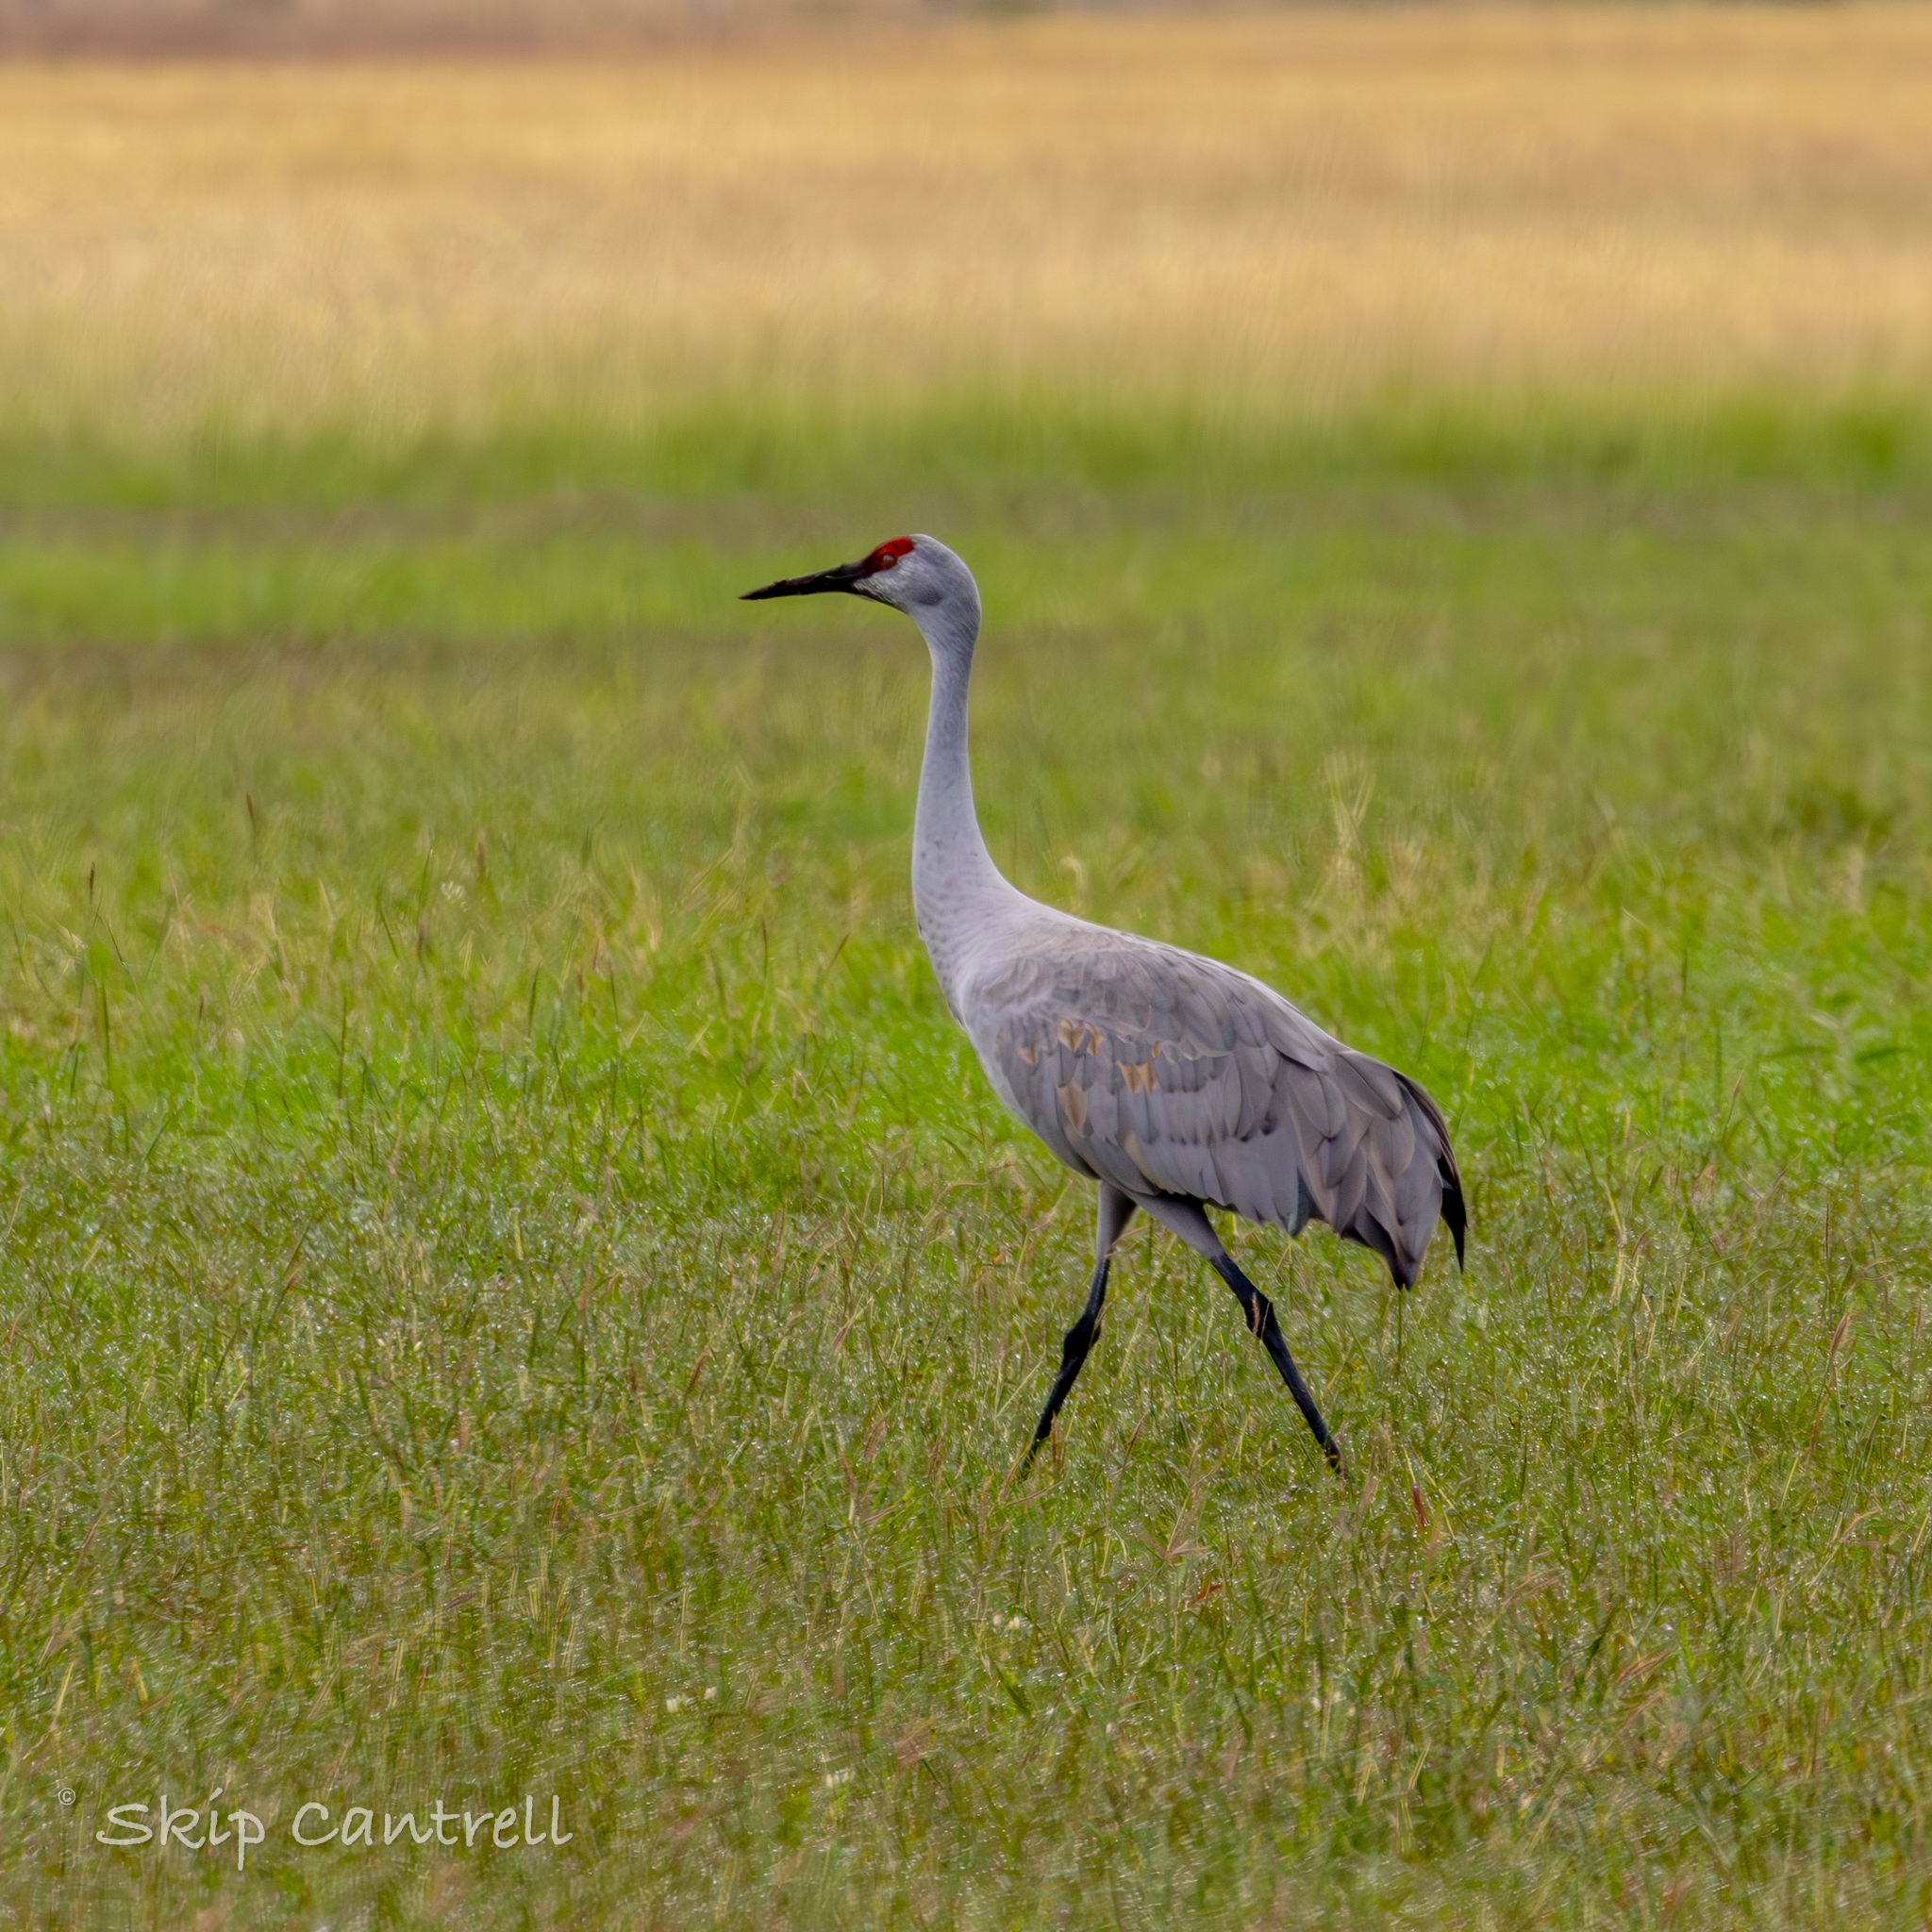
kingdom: Animalia
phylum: Chordata
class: Aves
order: Gruiformes
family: Gruidae
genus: Grus
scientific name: Grus canadensis
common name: Sandhill crane
